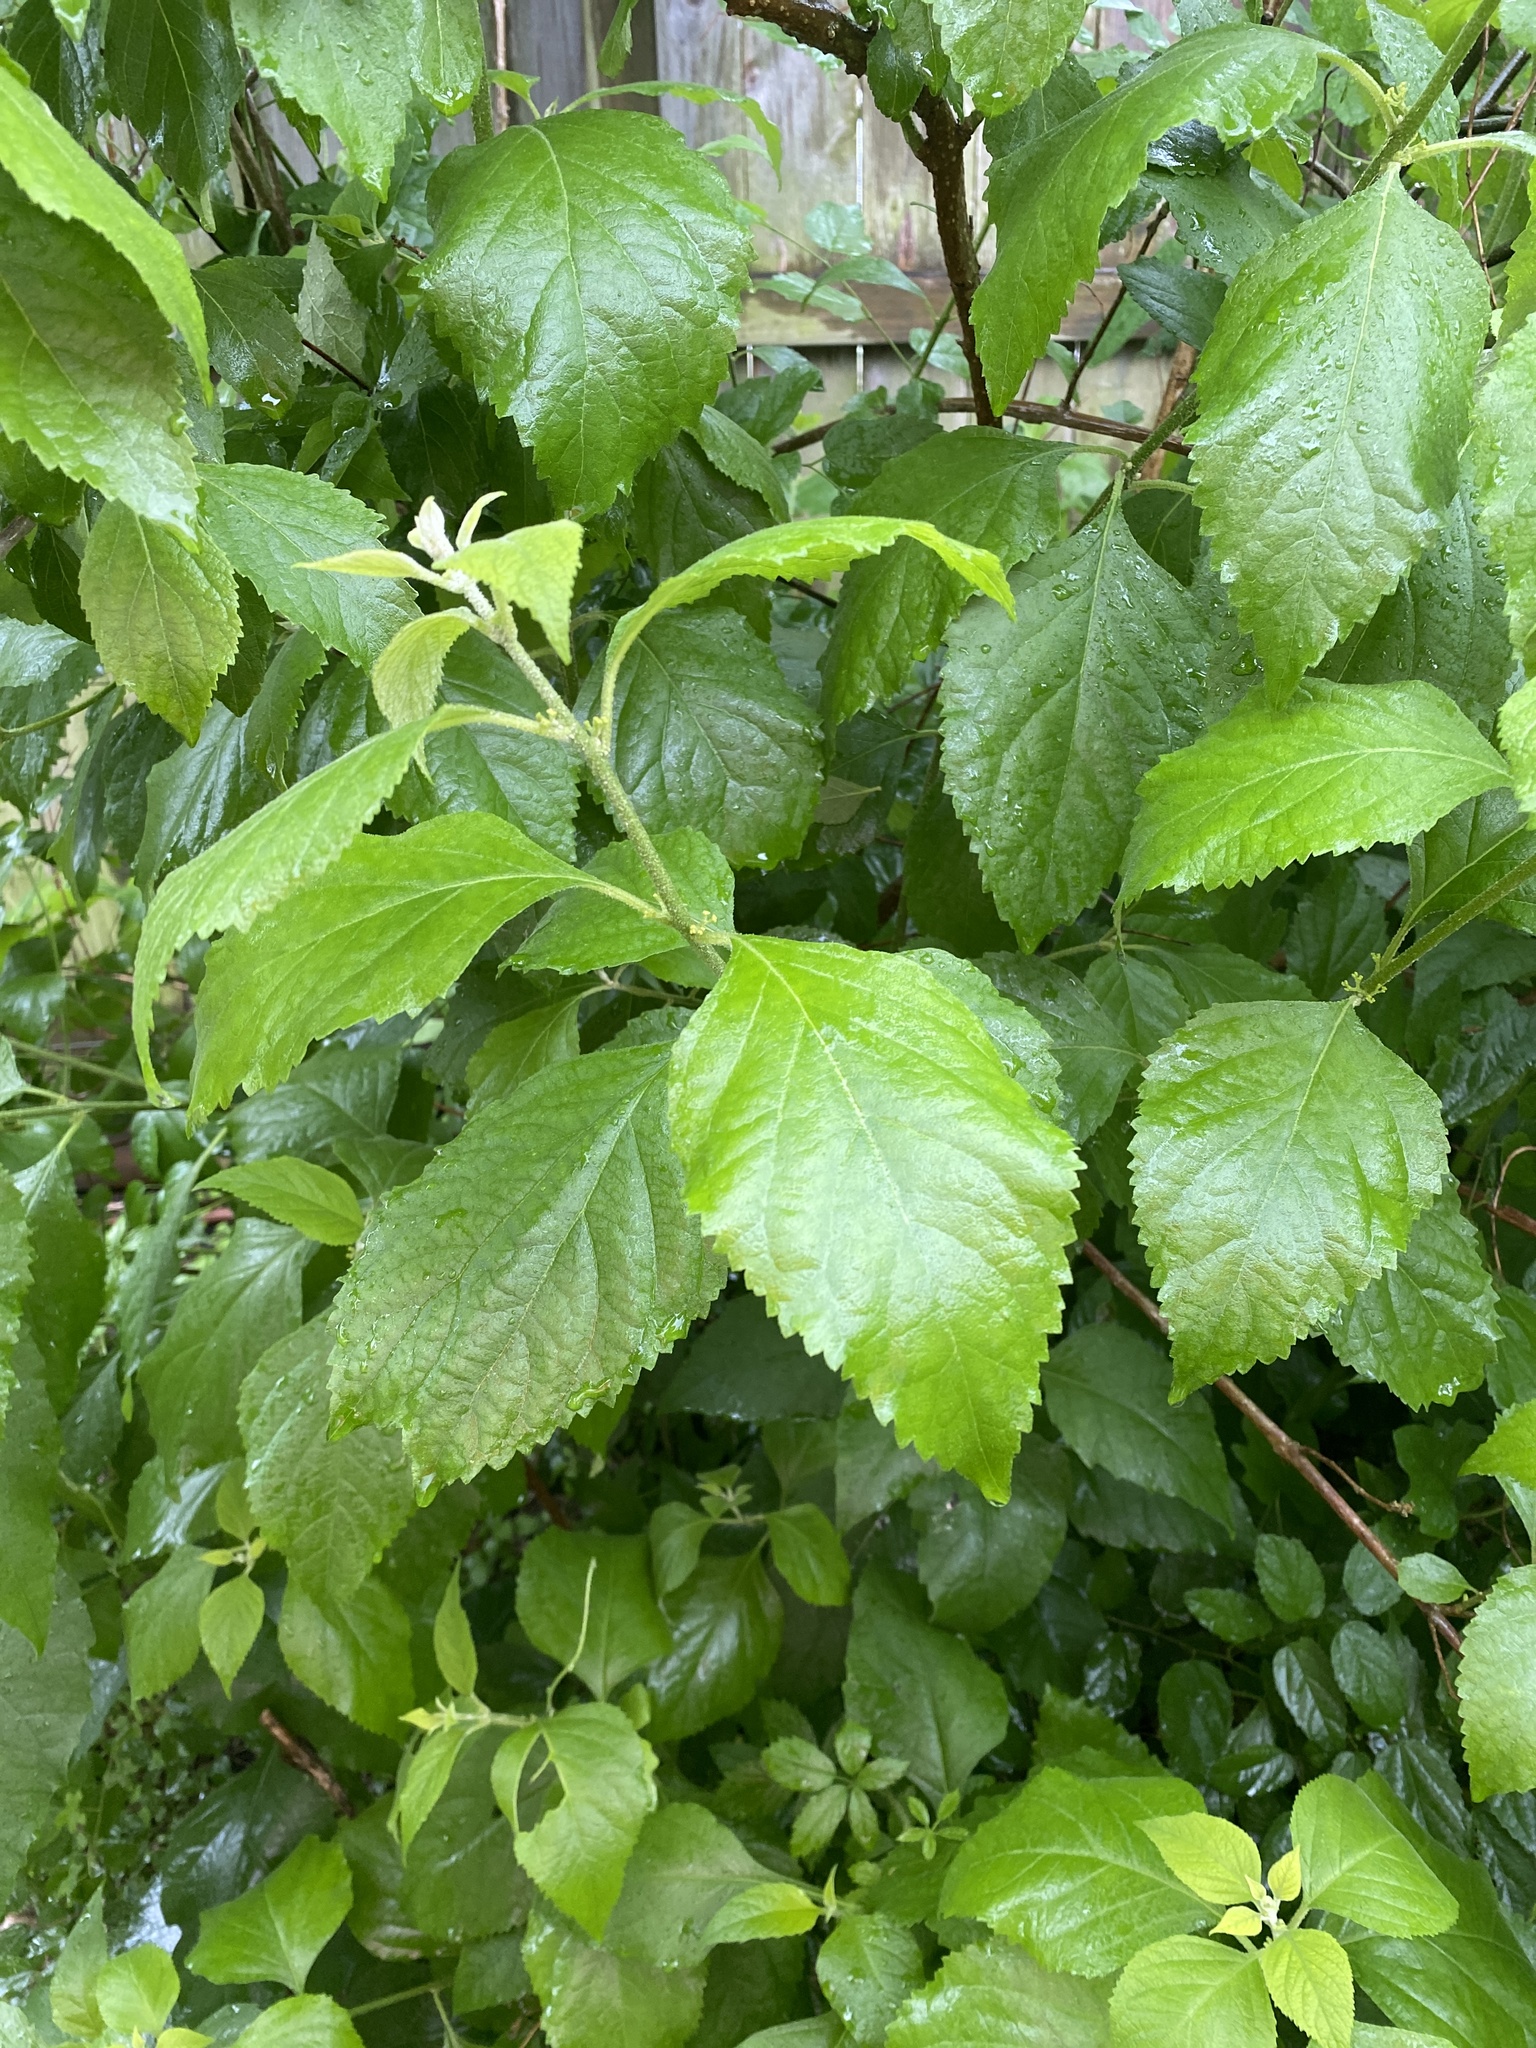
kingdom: Plantae
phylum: Tracheophyta
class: Magnoliopsida
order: Lamiales
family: Lamiaceae
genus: Callicarpa
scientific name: Callicarpa americana
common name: American beautyberry
